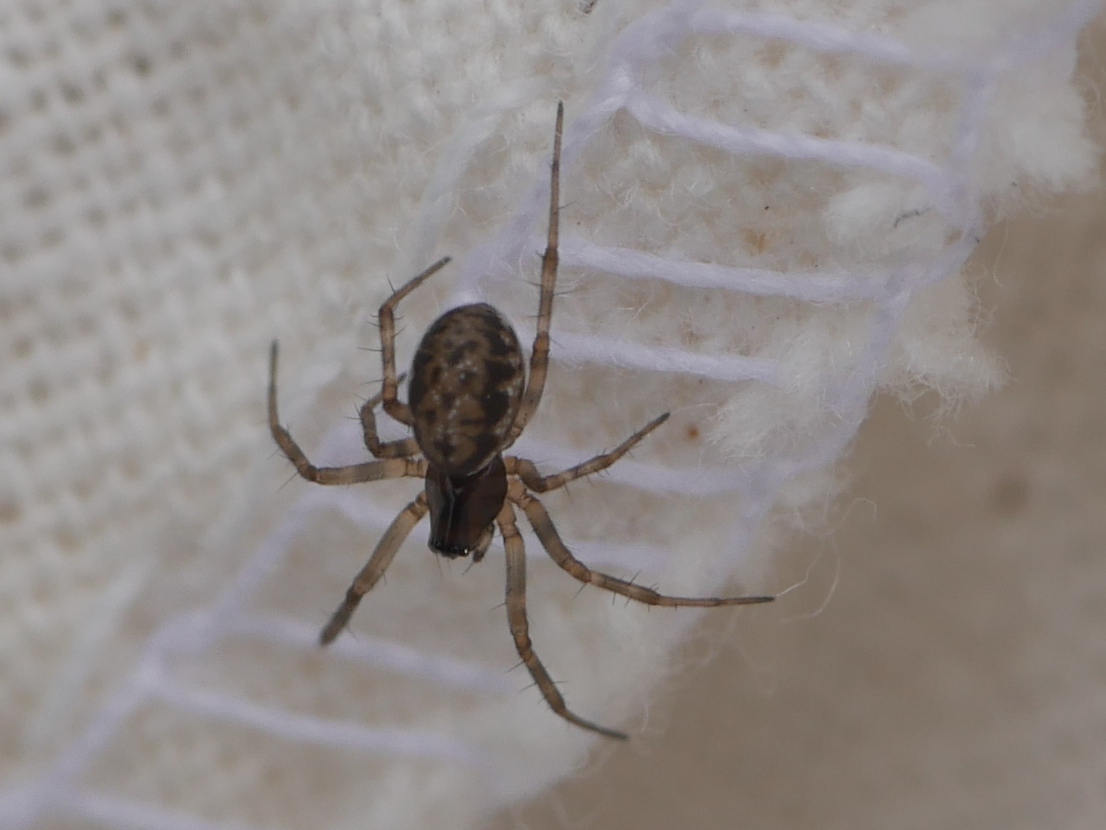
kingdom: Animalia
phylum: Arthropoda
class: Arachnida
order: Araneae
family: Linyphiidae
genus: Neriene
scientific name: Neriene clathrata
